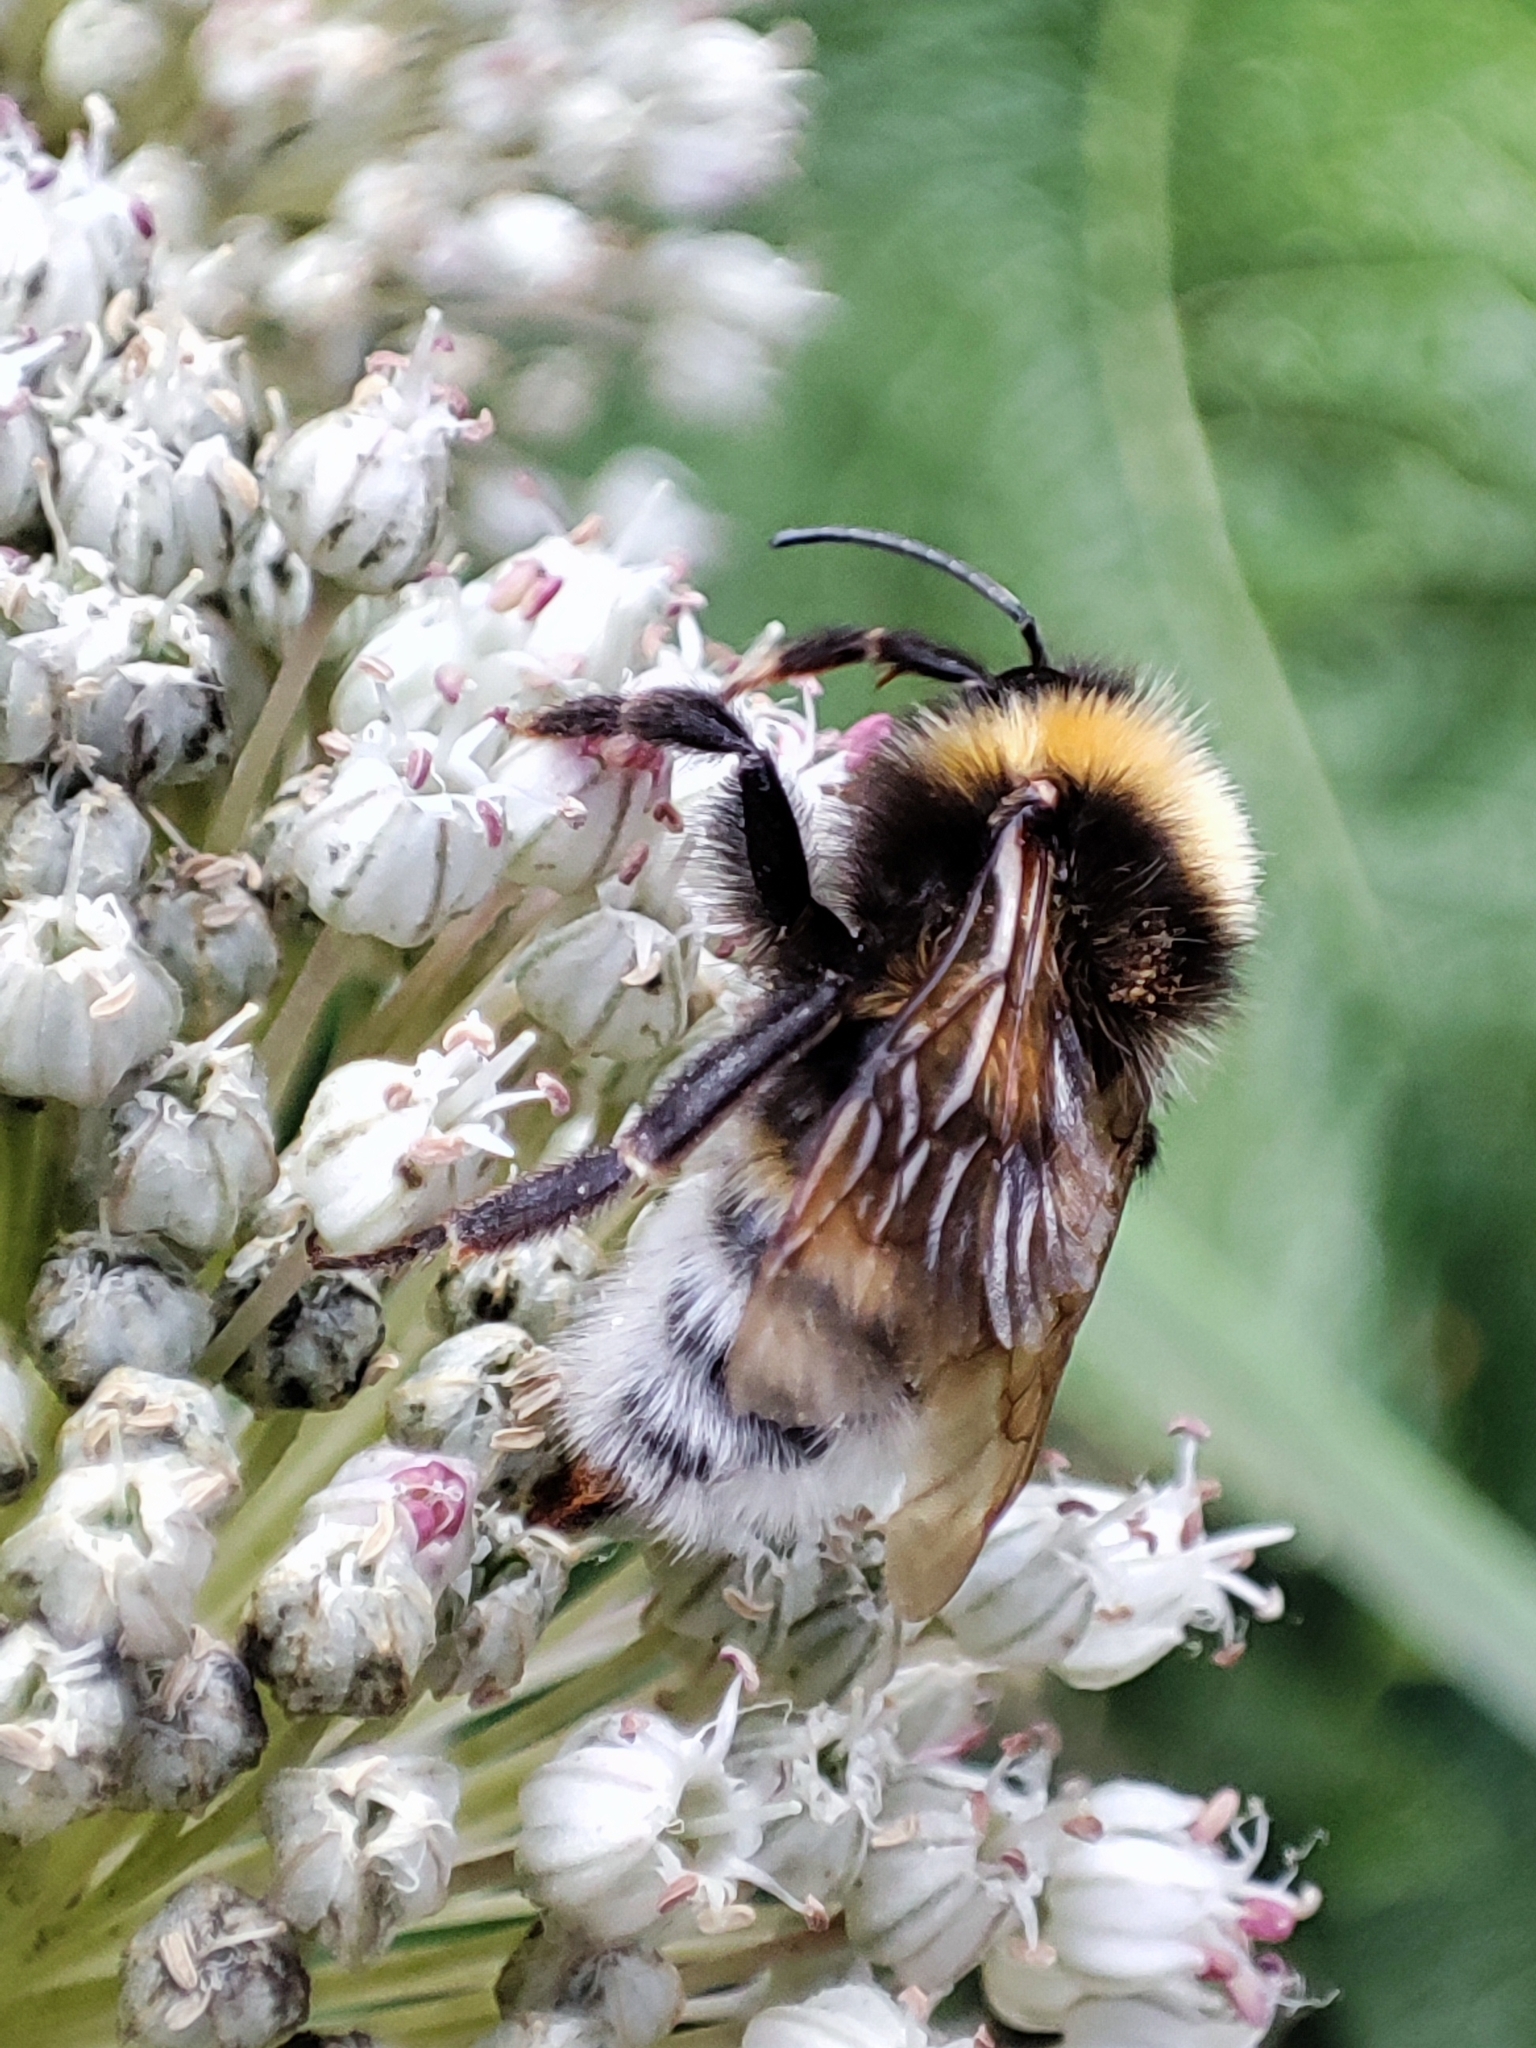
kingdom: Animalia
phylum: Arthropoda
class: Insecta
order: Hymenoptera
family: Apidae
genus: Bombus
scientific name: Bombus vestalis
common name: Vestal cuckoo bee
